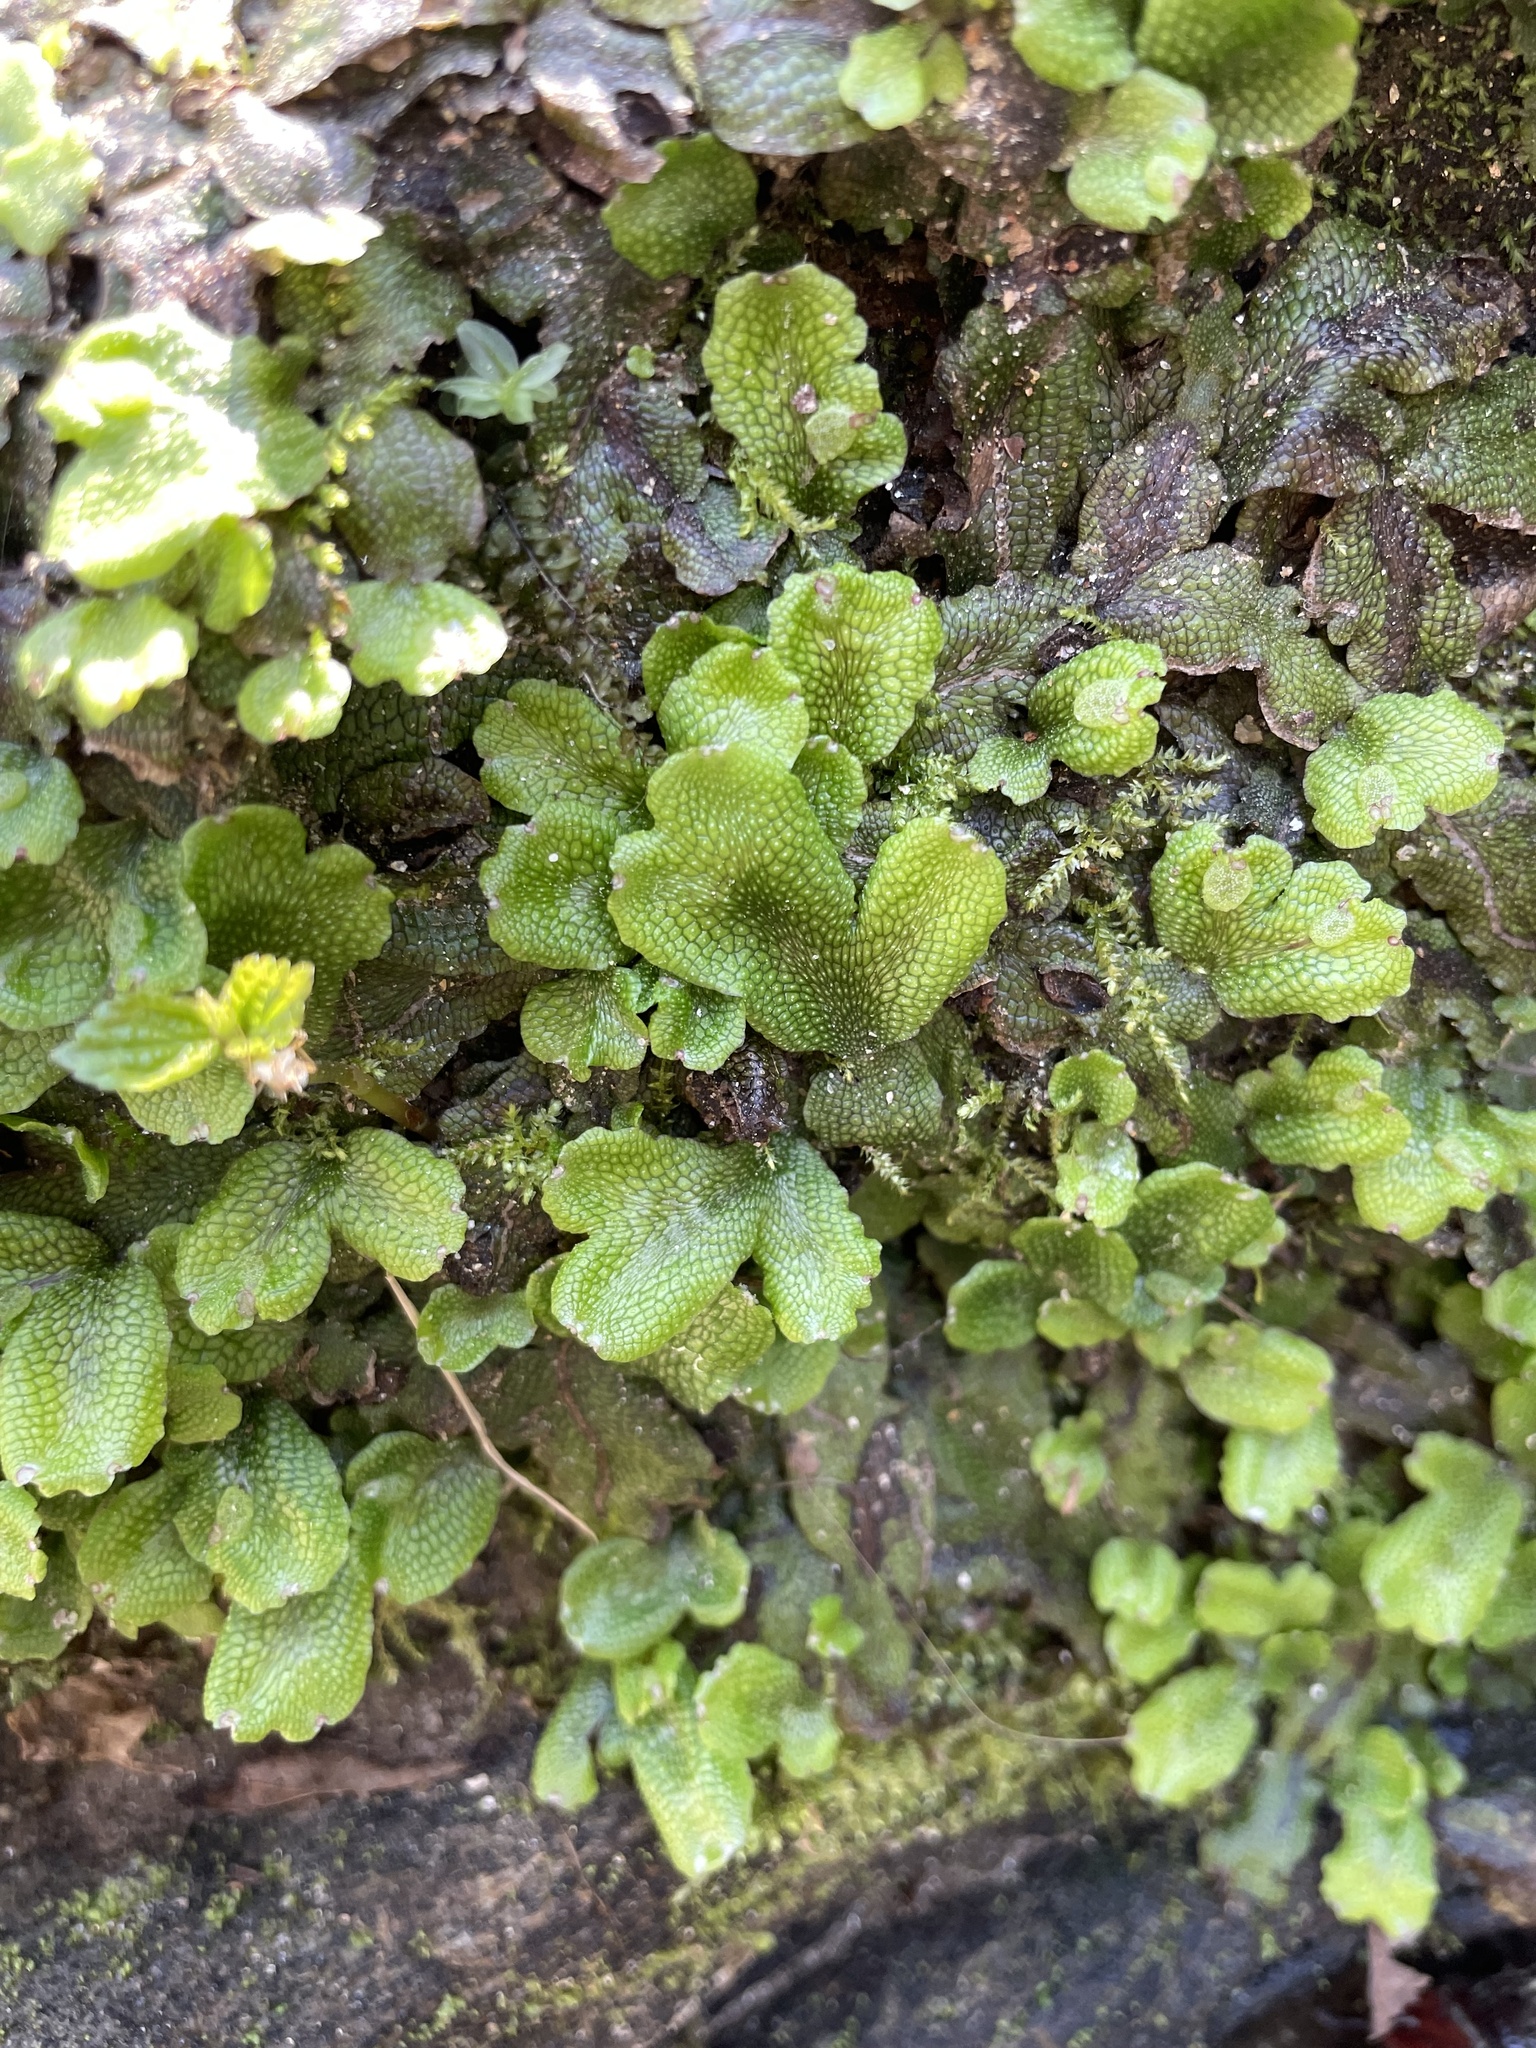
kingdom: Plantae
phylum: Marchantiophyta
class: Marchantiopsida
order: Marchantiales
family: Conocephalaceae
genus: Conocephalum
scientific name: Conocephalum salebrosum
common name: Cat-tongue liverwort
